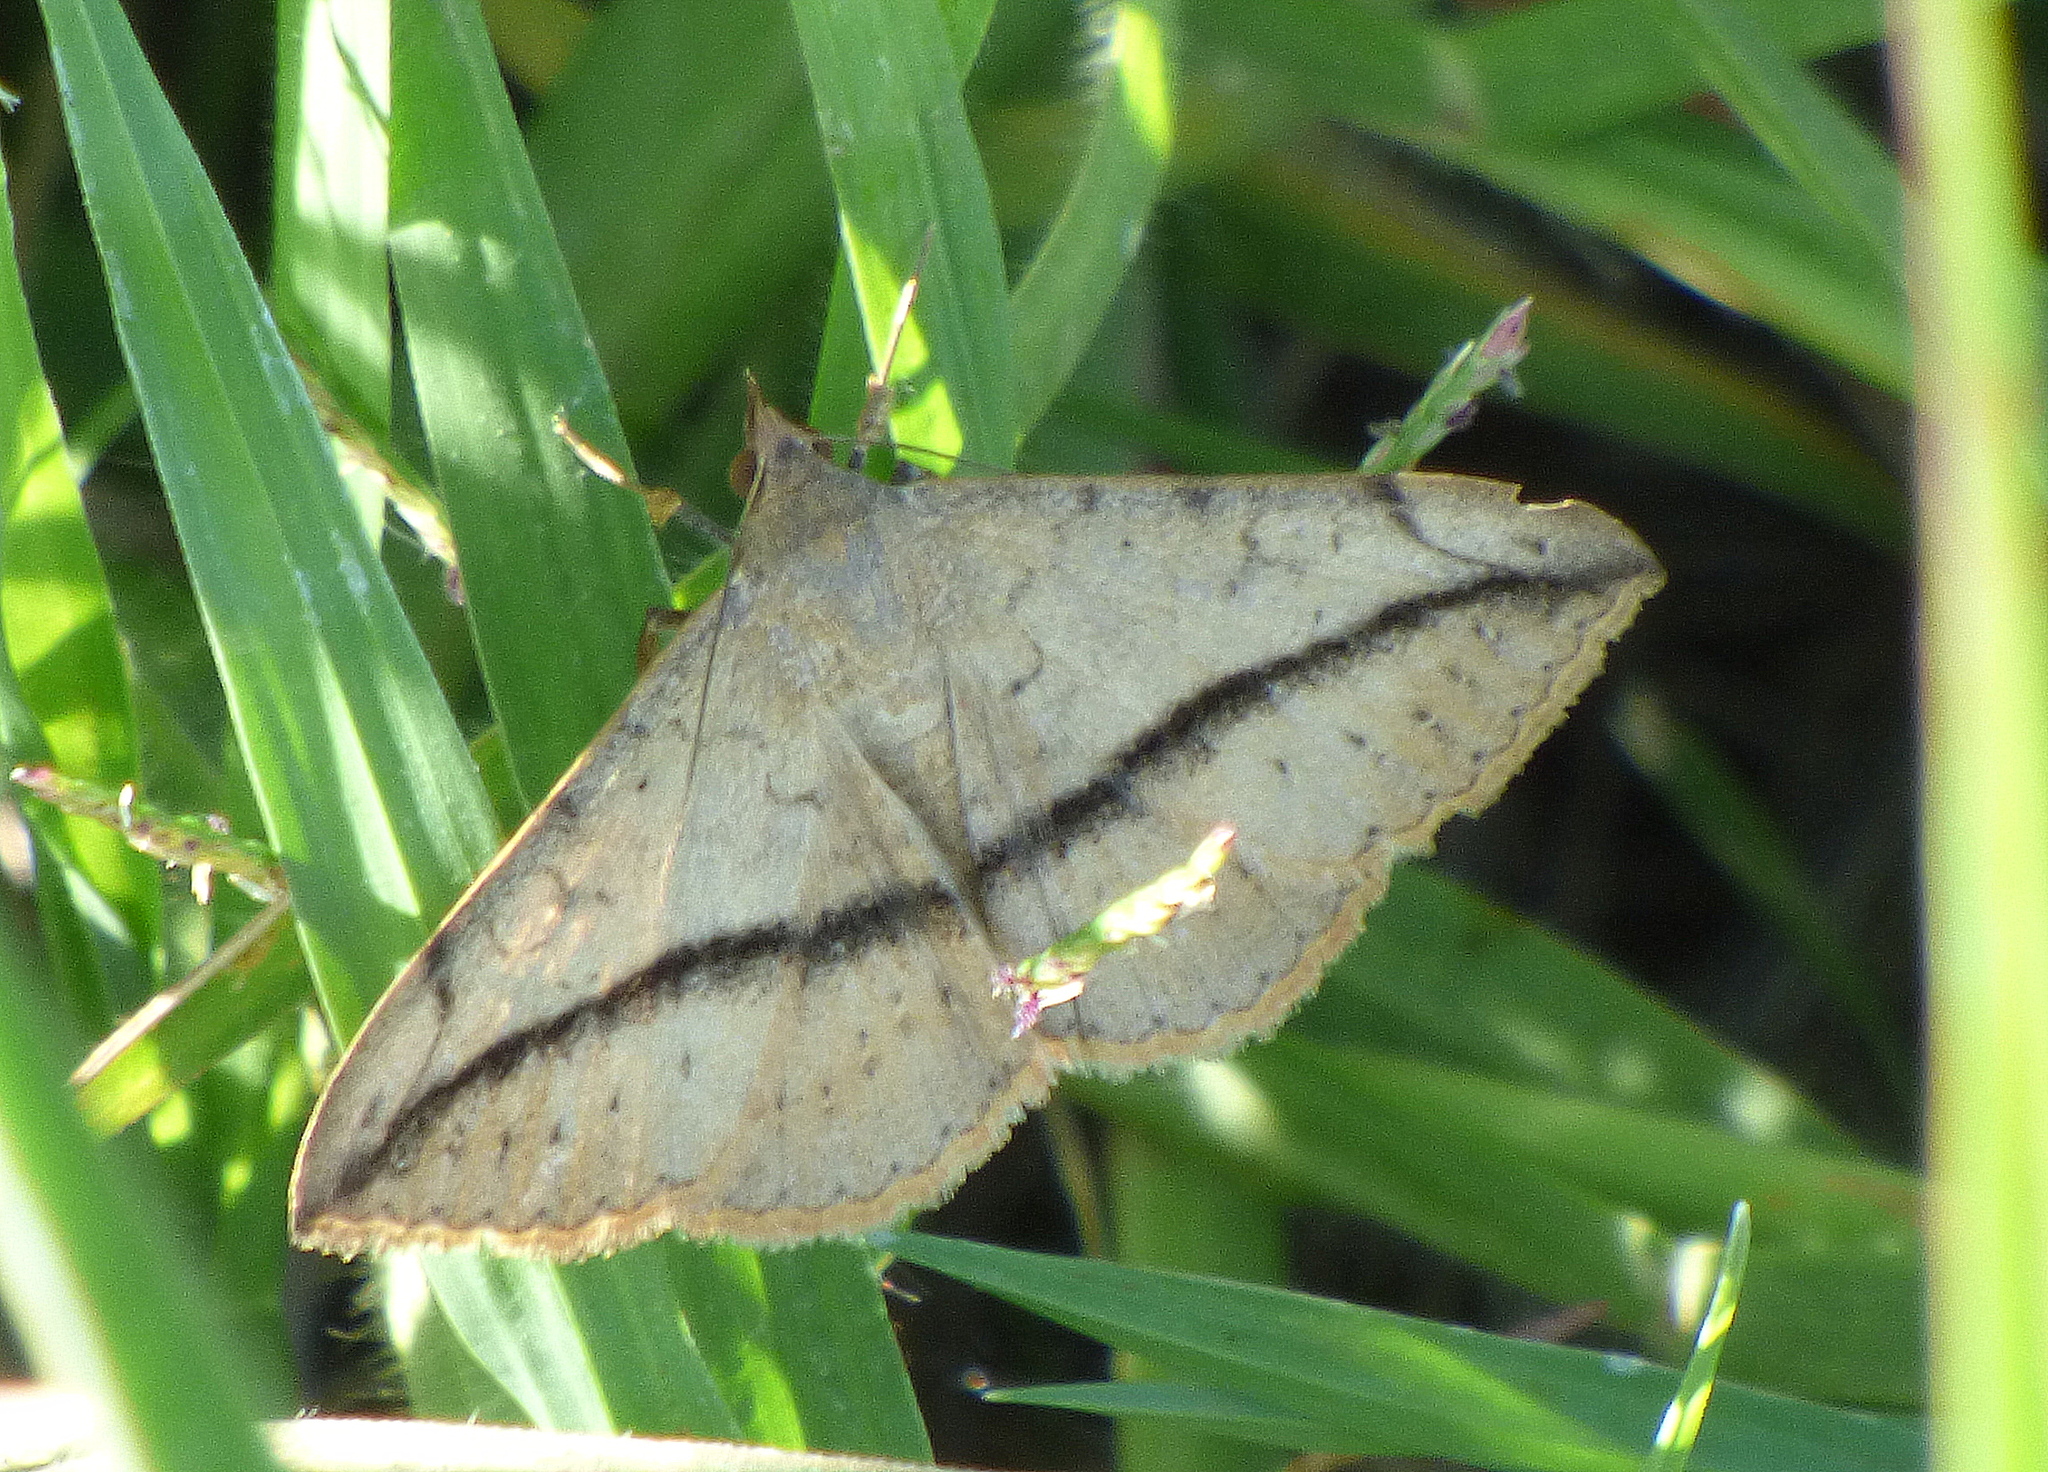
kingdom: Animalia
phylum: Arthropoda
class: Insecta
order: Lepidoptera
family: Erebidae
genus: Anticarsia
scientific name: Anticarsia gemmatalis
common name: Cutworm moth
